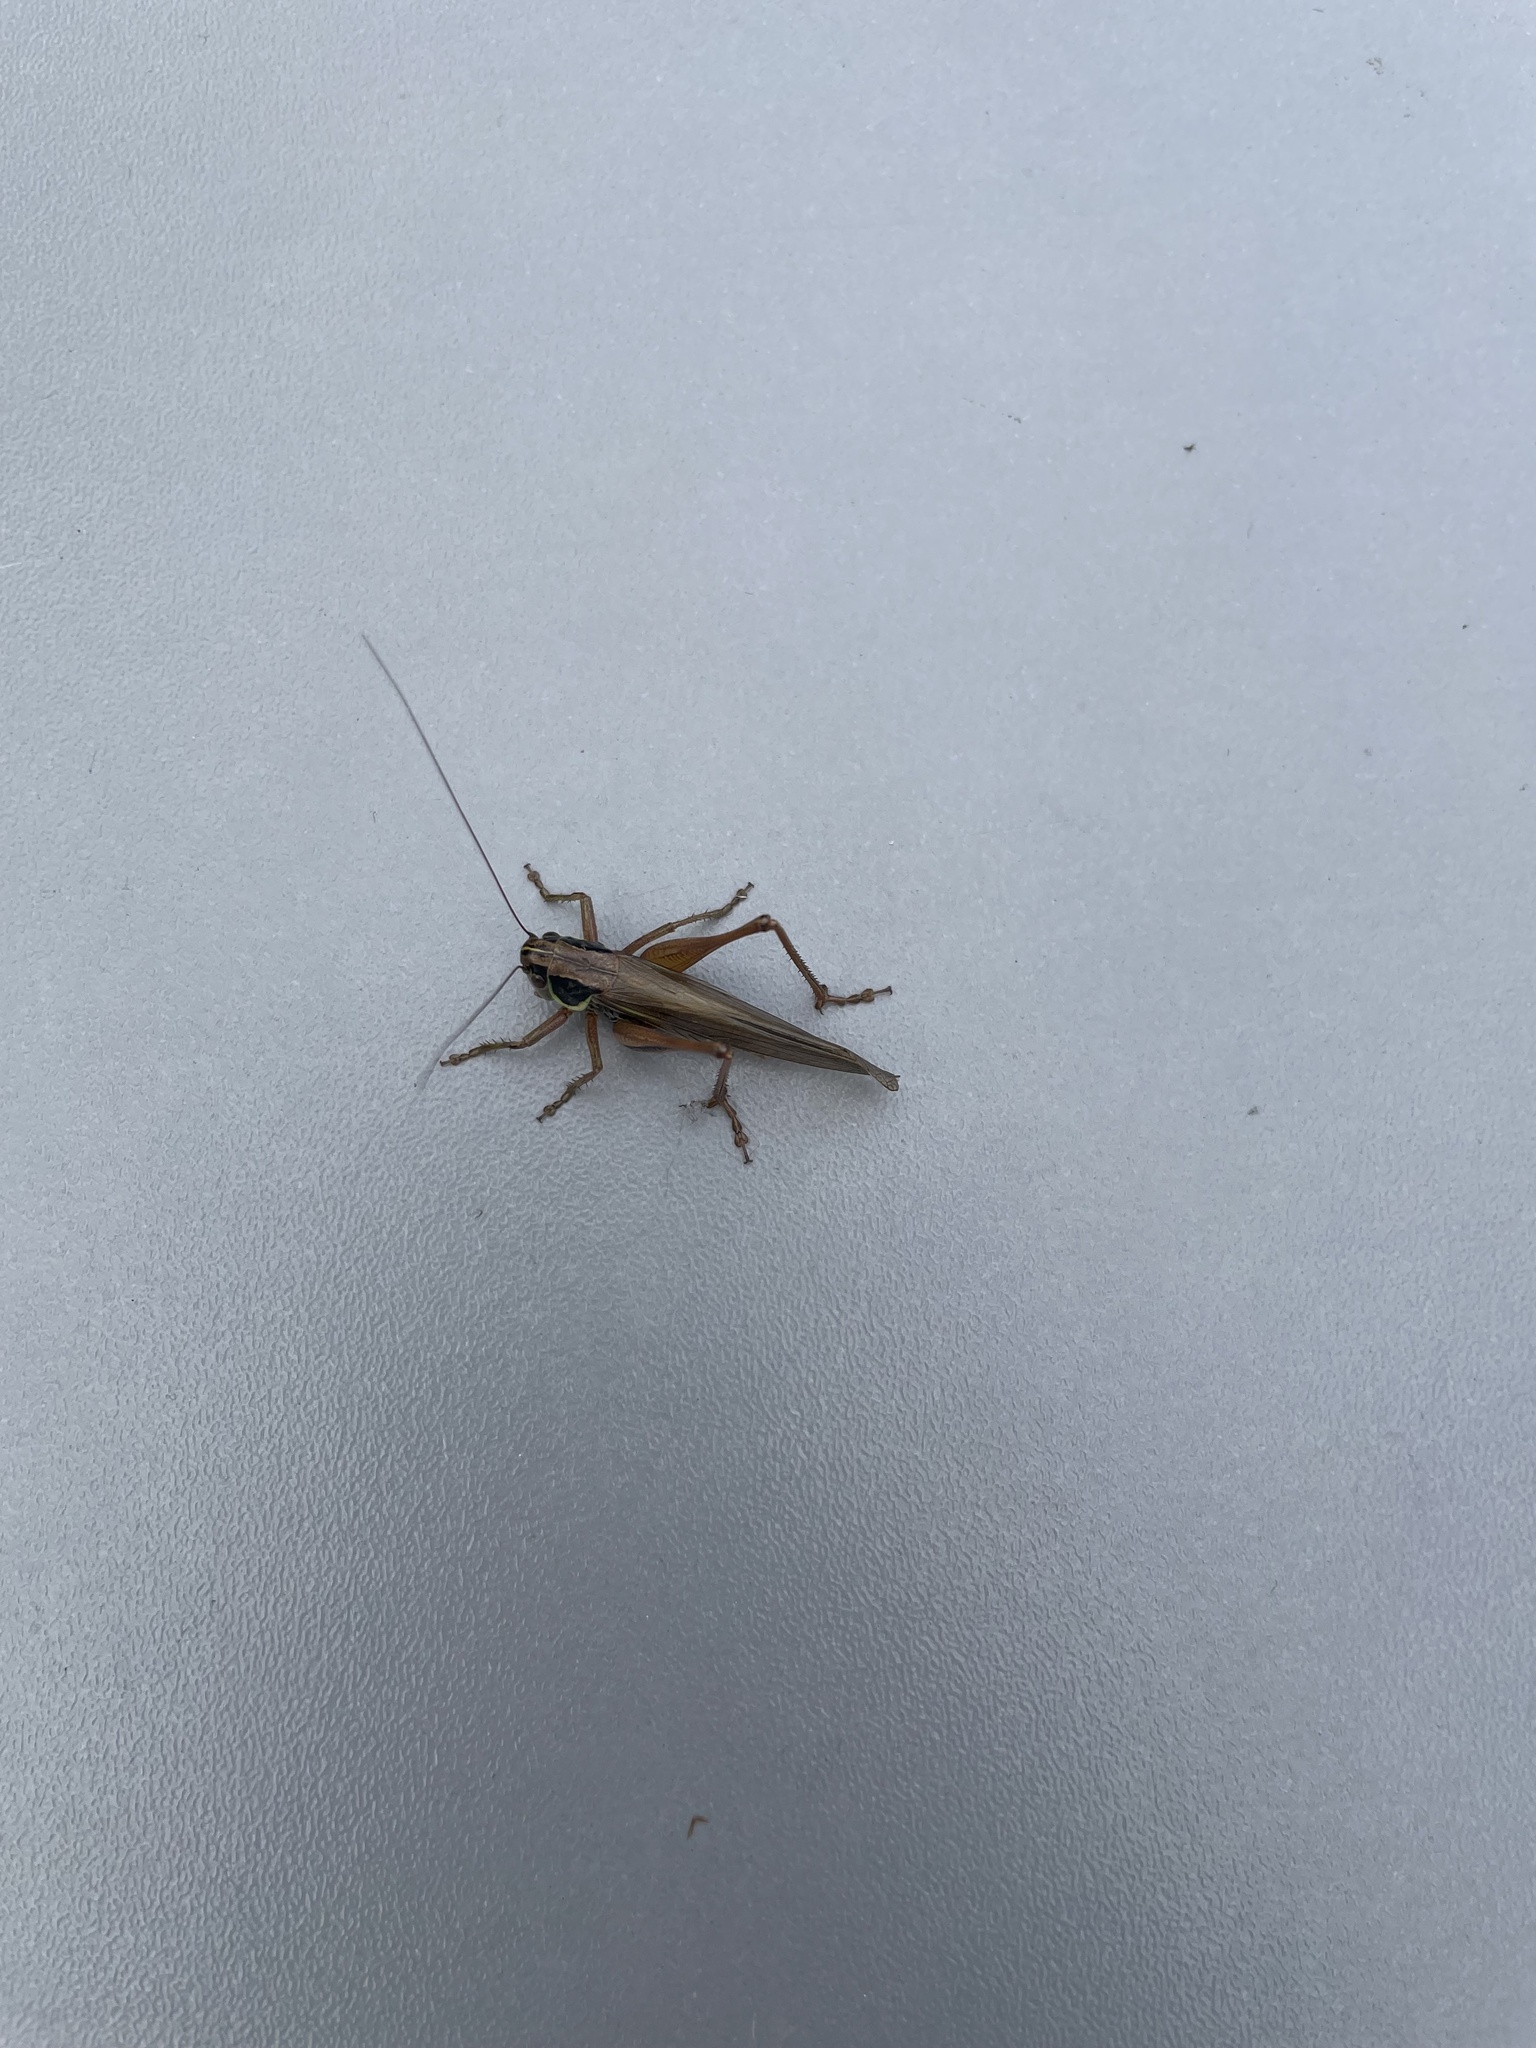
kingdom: Animalia
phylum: Arthropoda
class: Insecta
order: Orthoptera
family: Tettigoniidae
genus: Roeseliana
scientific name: Roeseliana roeselii
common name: Roesel's bush cricket
